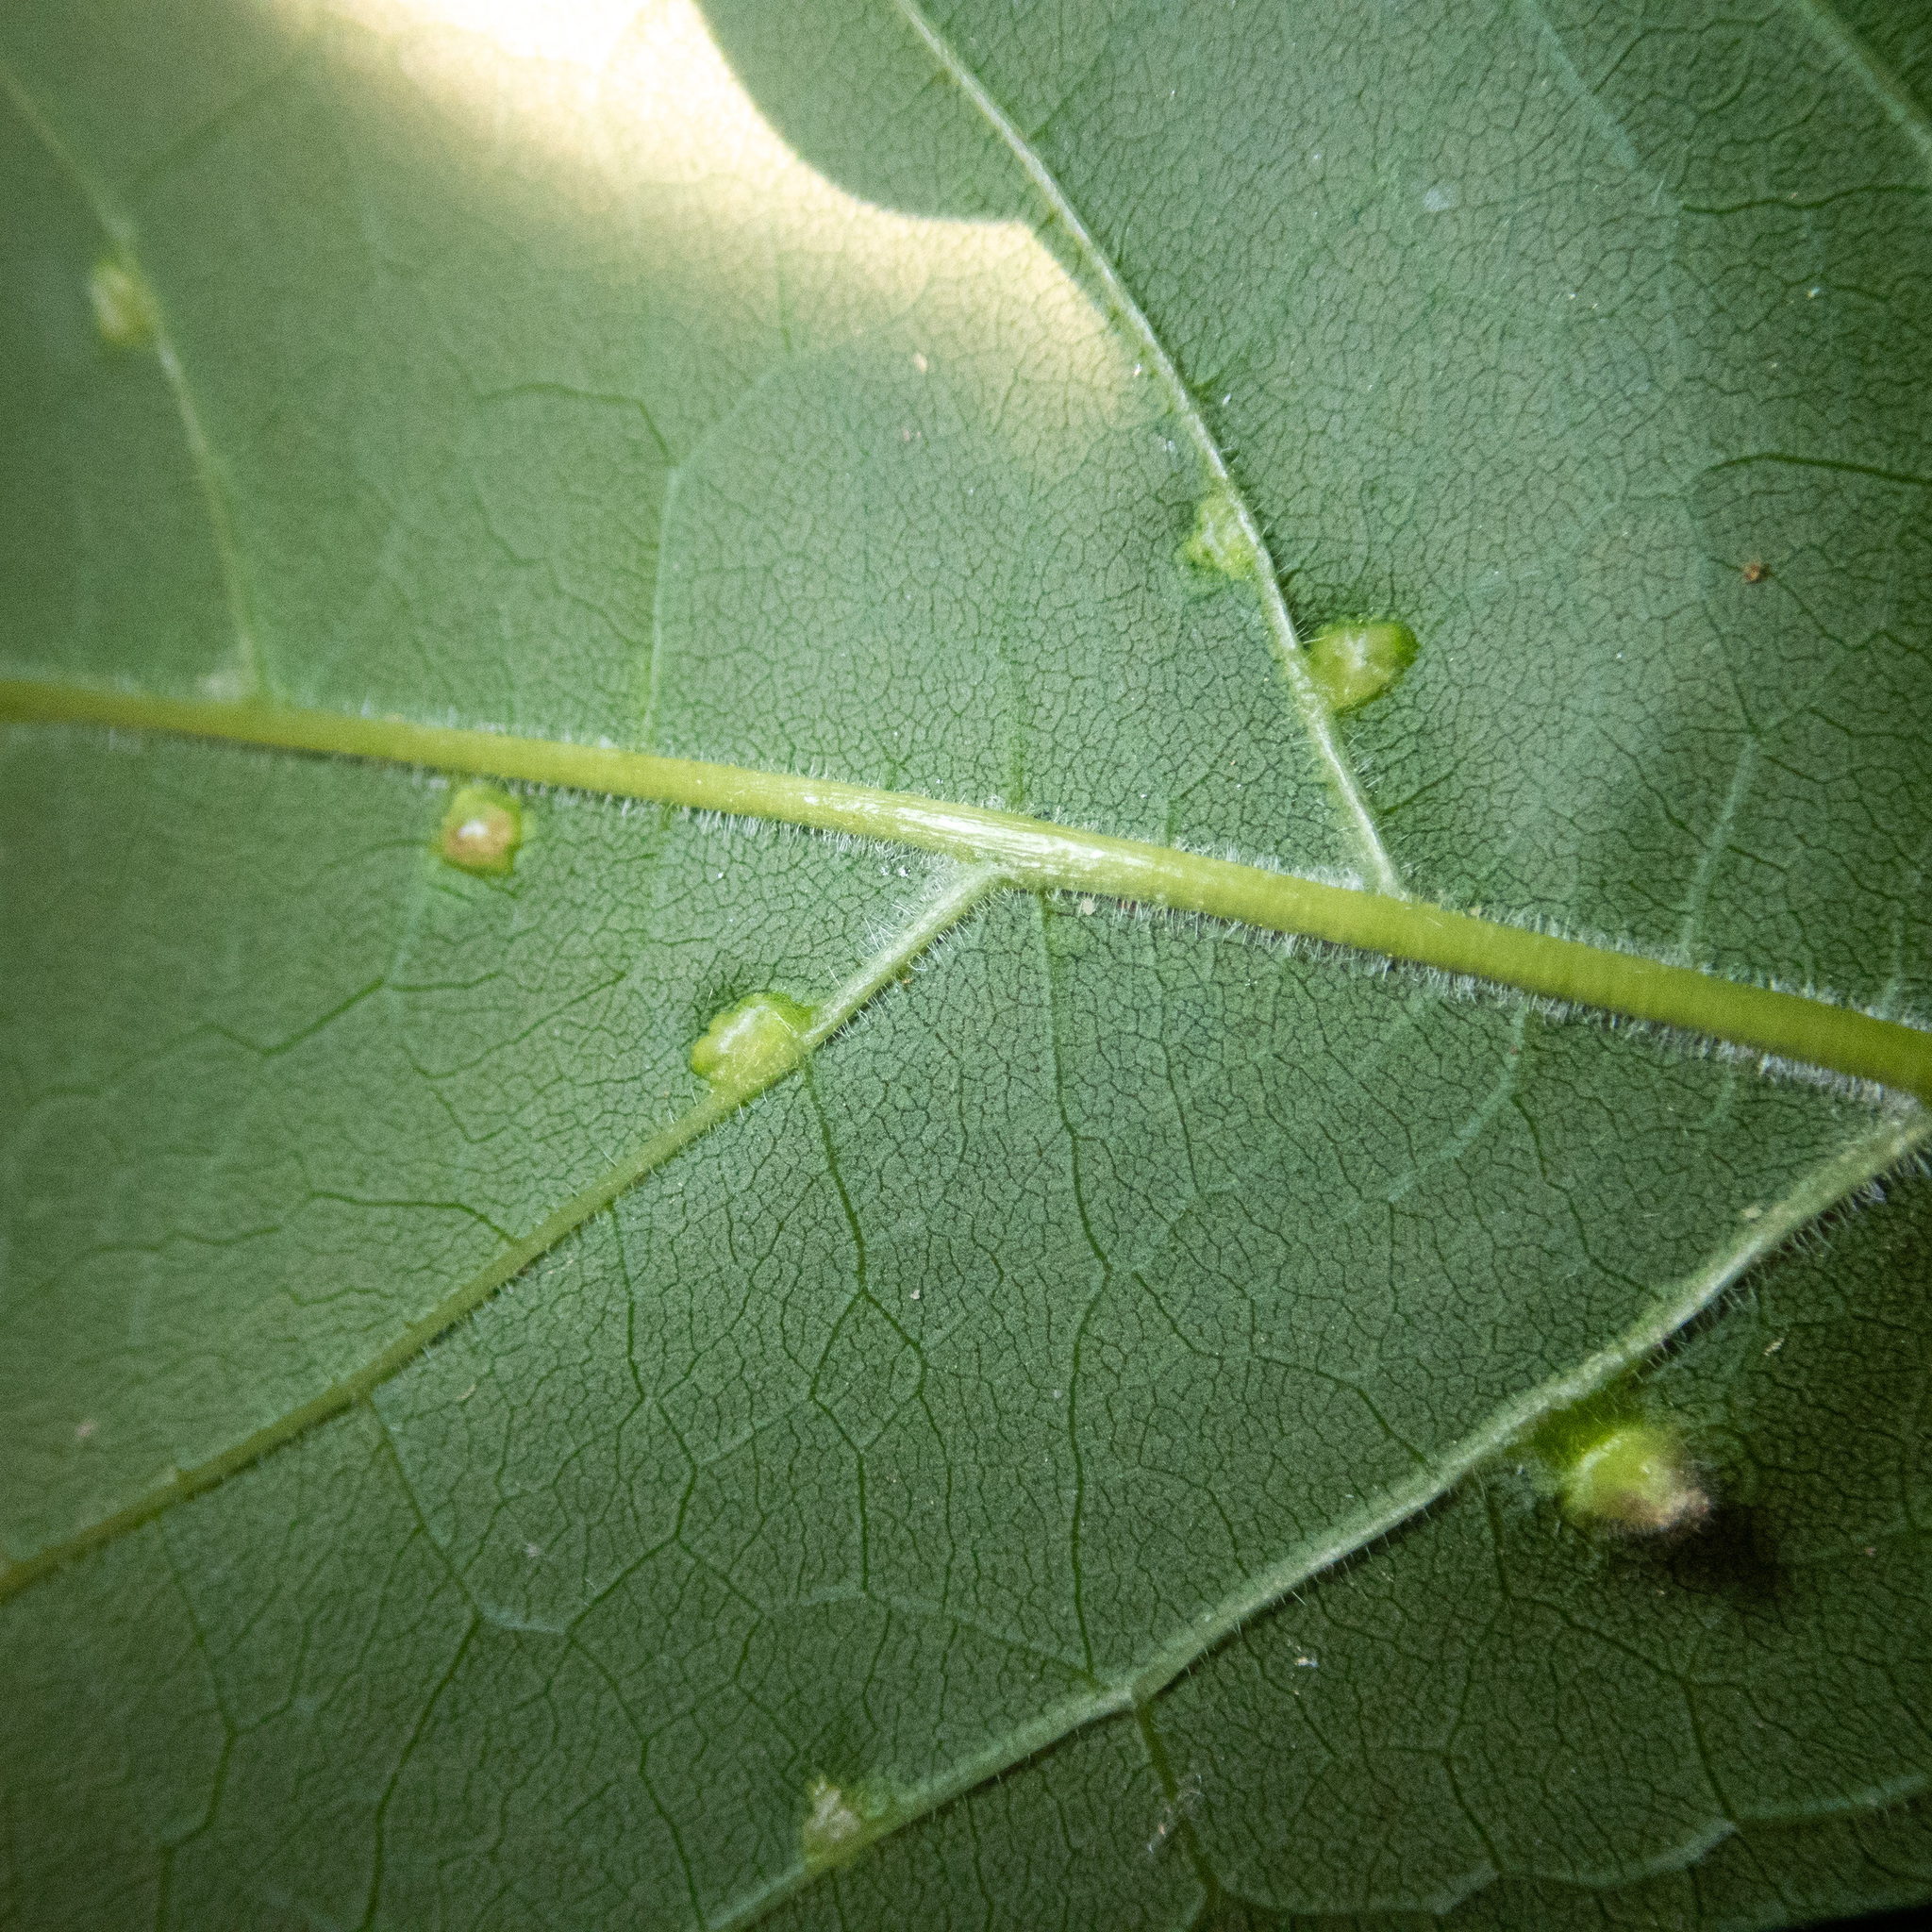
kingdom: Animalia
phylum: Arthropoda
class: Arachnida
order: Trombidiformes
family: Eriophyidae
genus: Aceria
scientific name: Aceria fraxinicola
